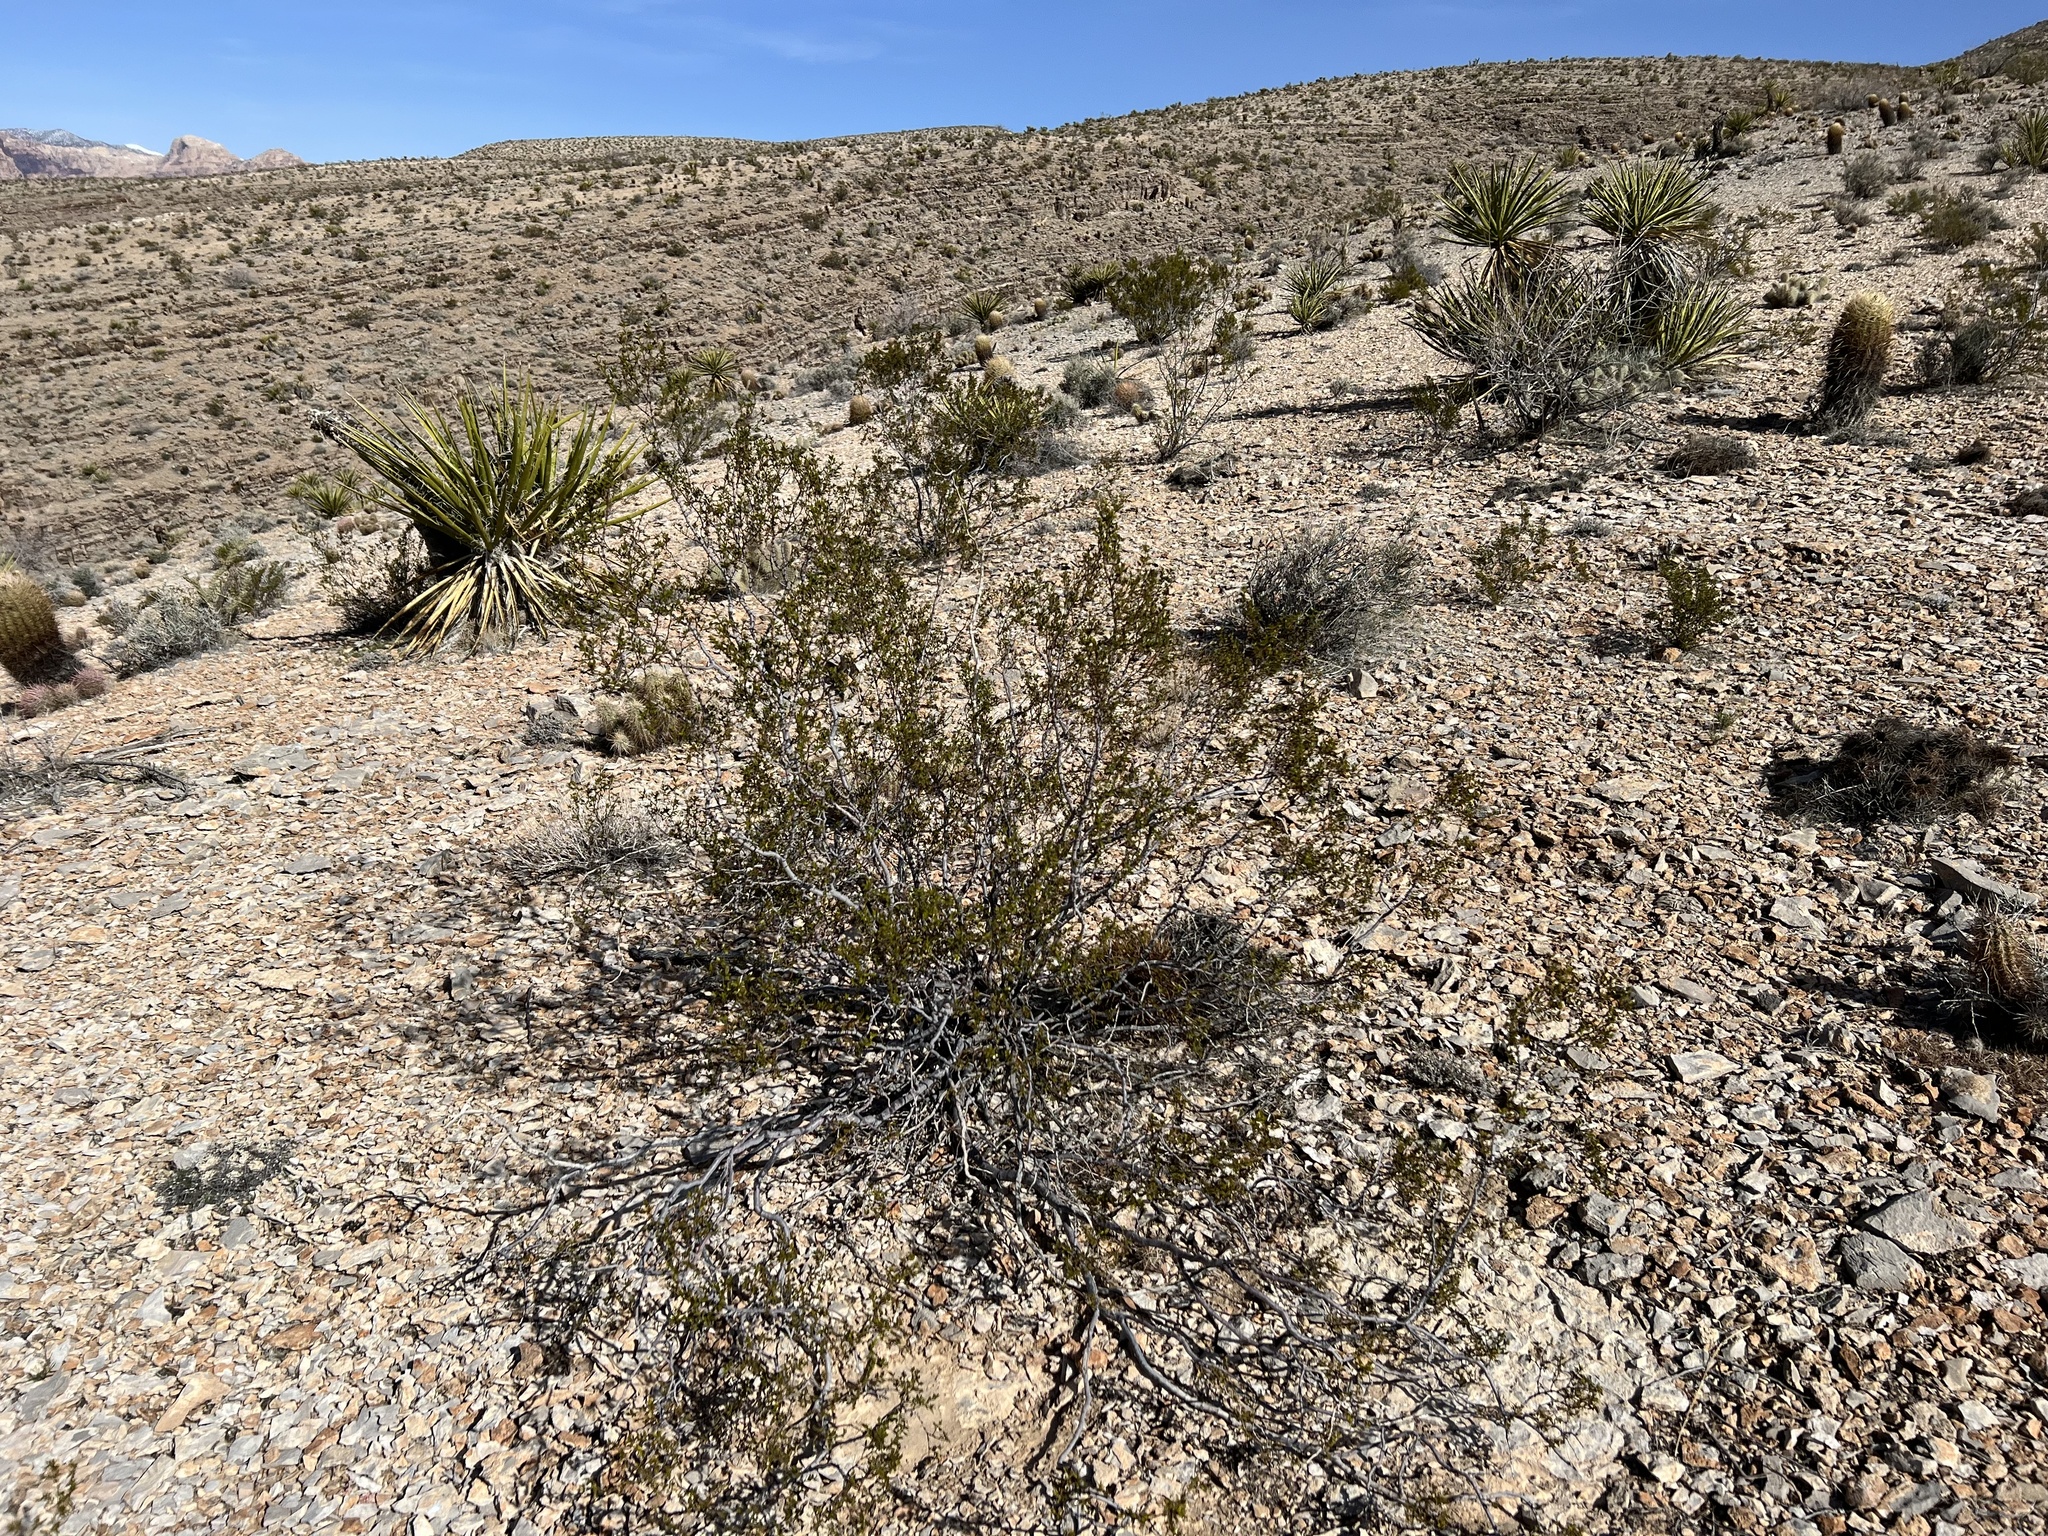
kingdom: Plantae
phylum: Tracheophyta
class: Magnoliopsida
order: Zygophyllales
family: Zygophyllaceae
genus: Larrea
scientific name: Larrea tridentata
